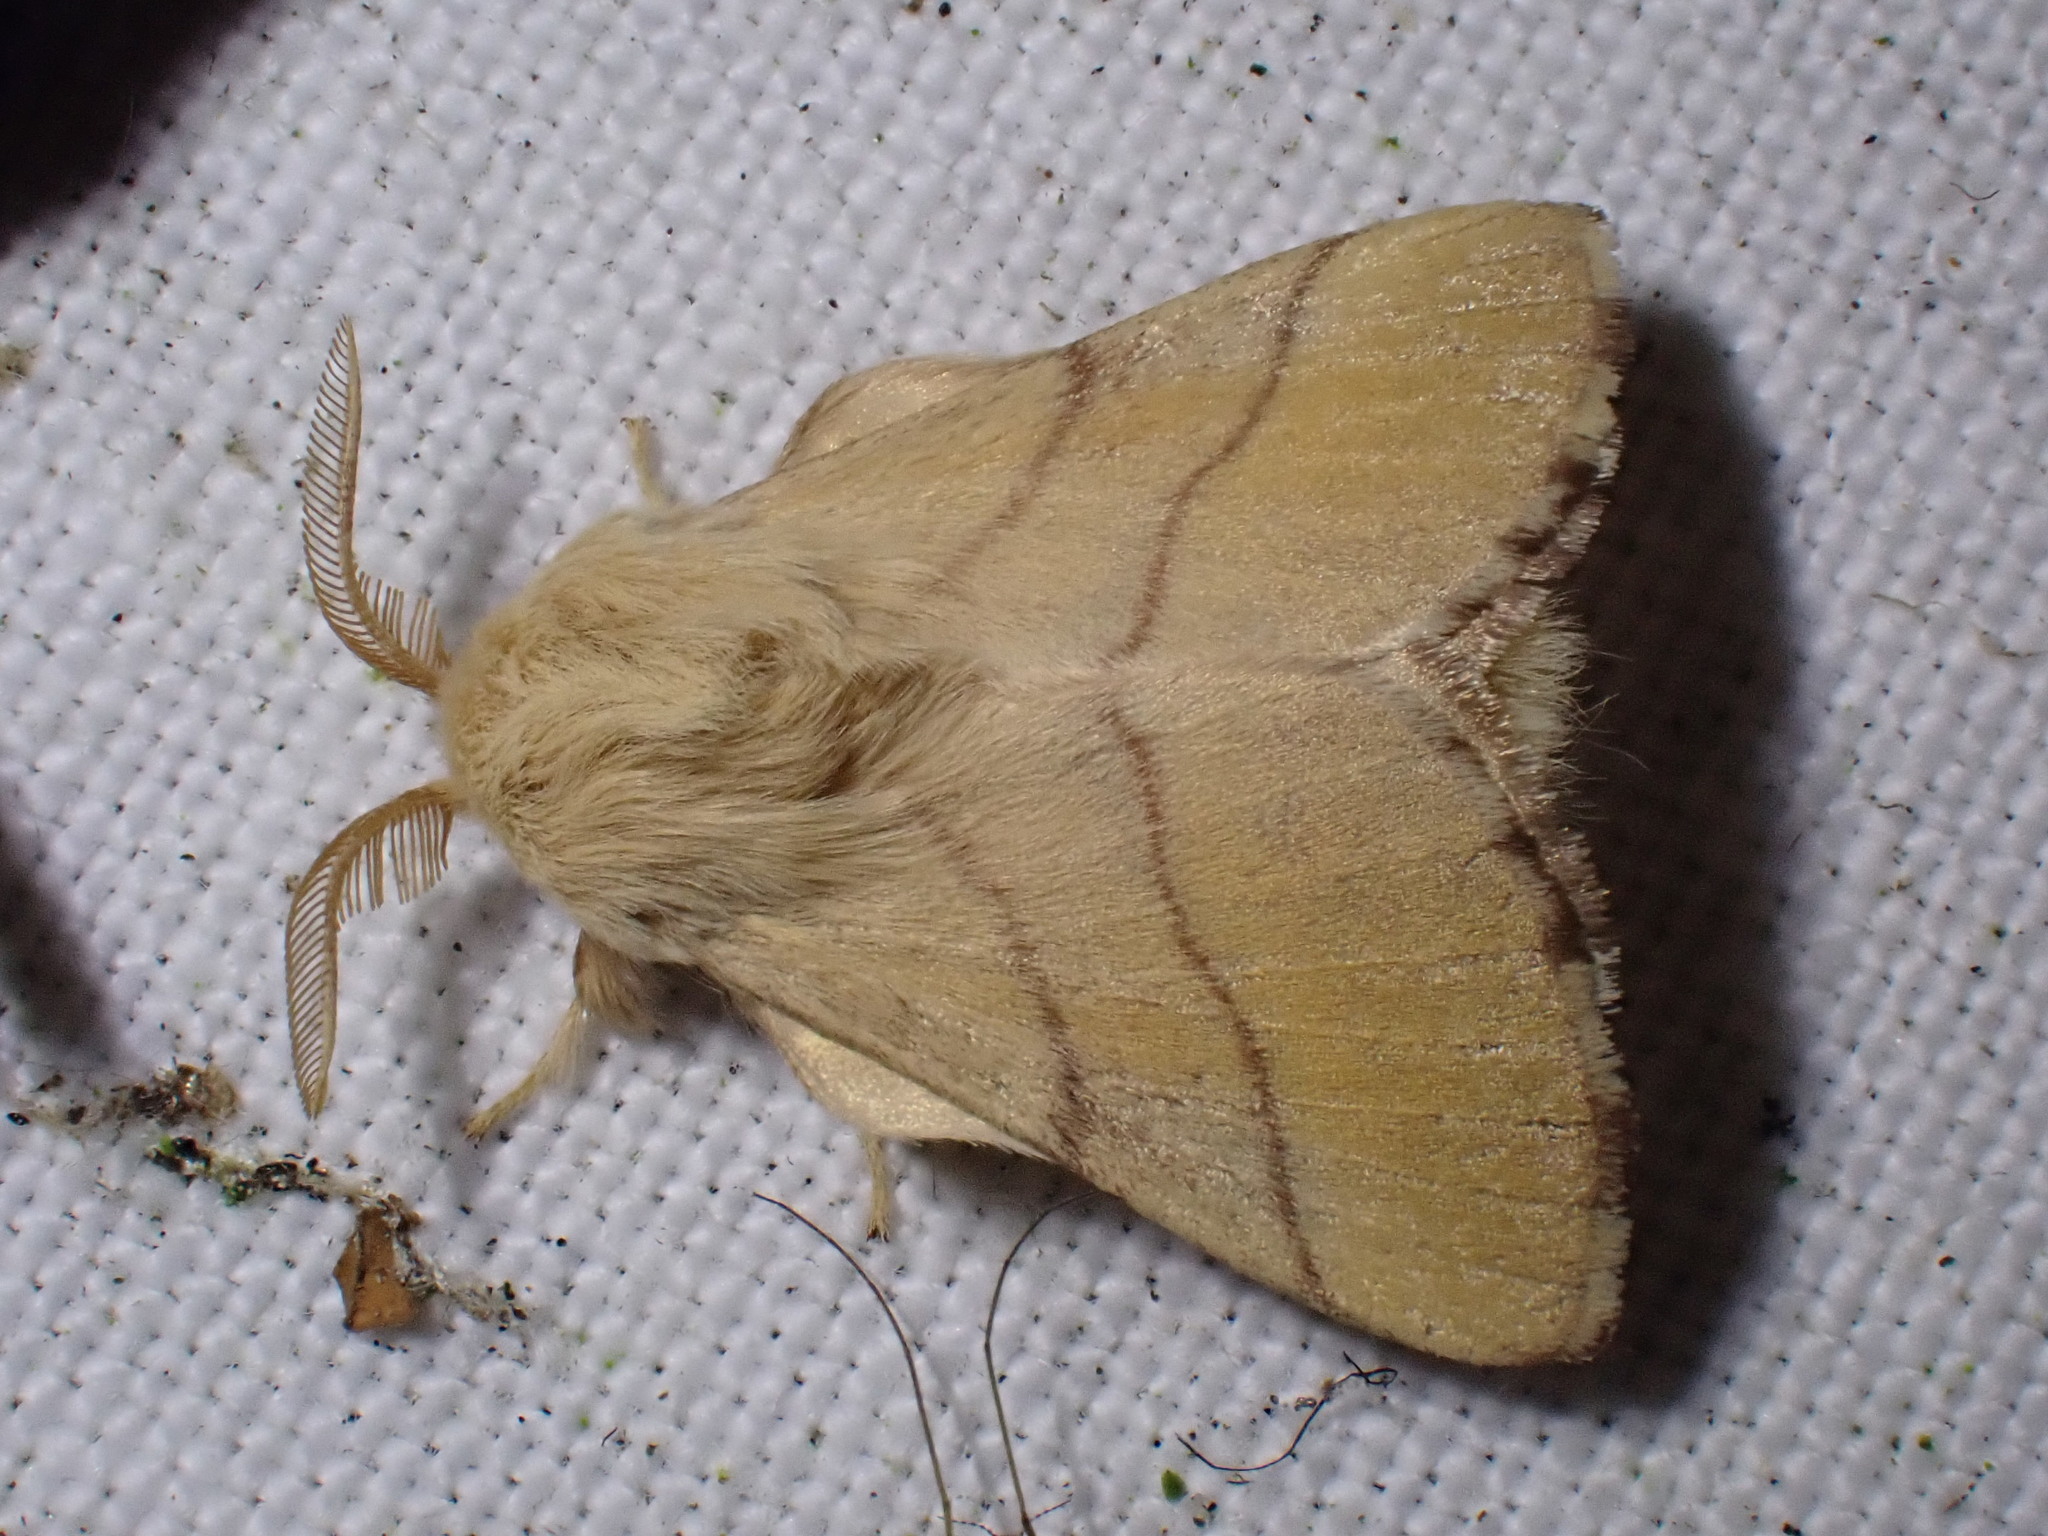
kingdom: Animalia
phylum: Arthropoda
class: Insecta
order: Lepidoptera
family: Lasiocampidae
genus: Malacosoma
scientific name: Malacosoma neustria
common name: The lackey
